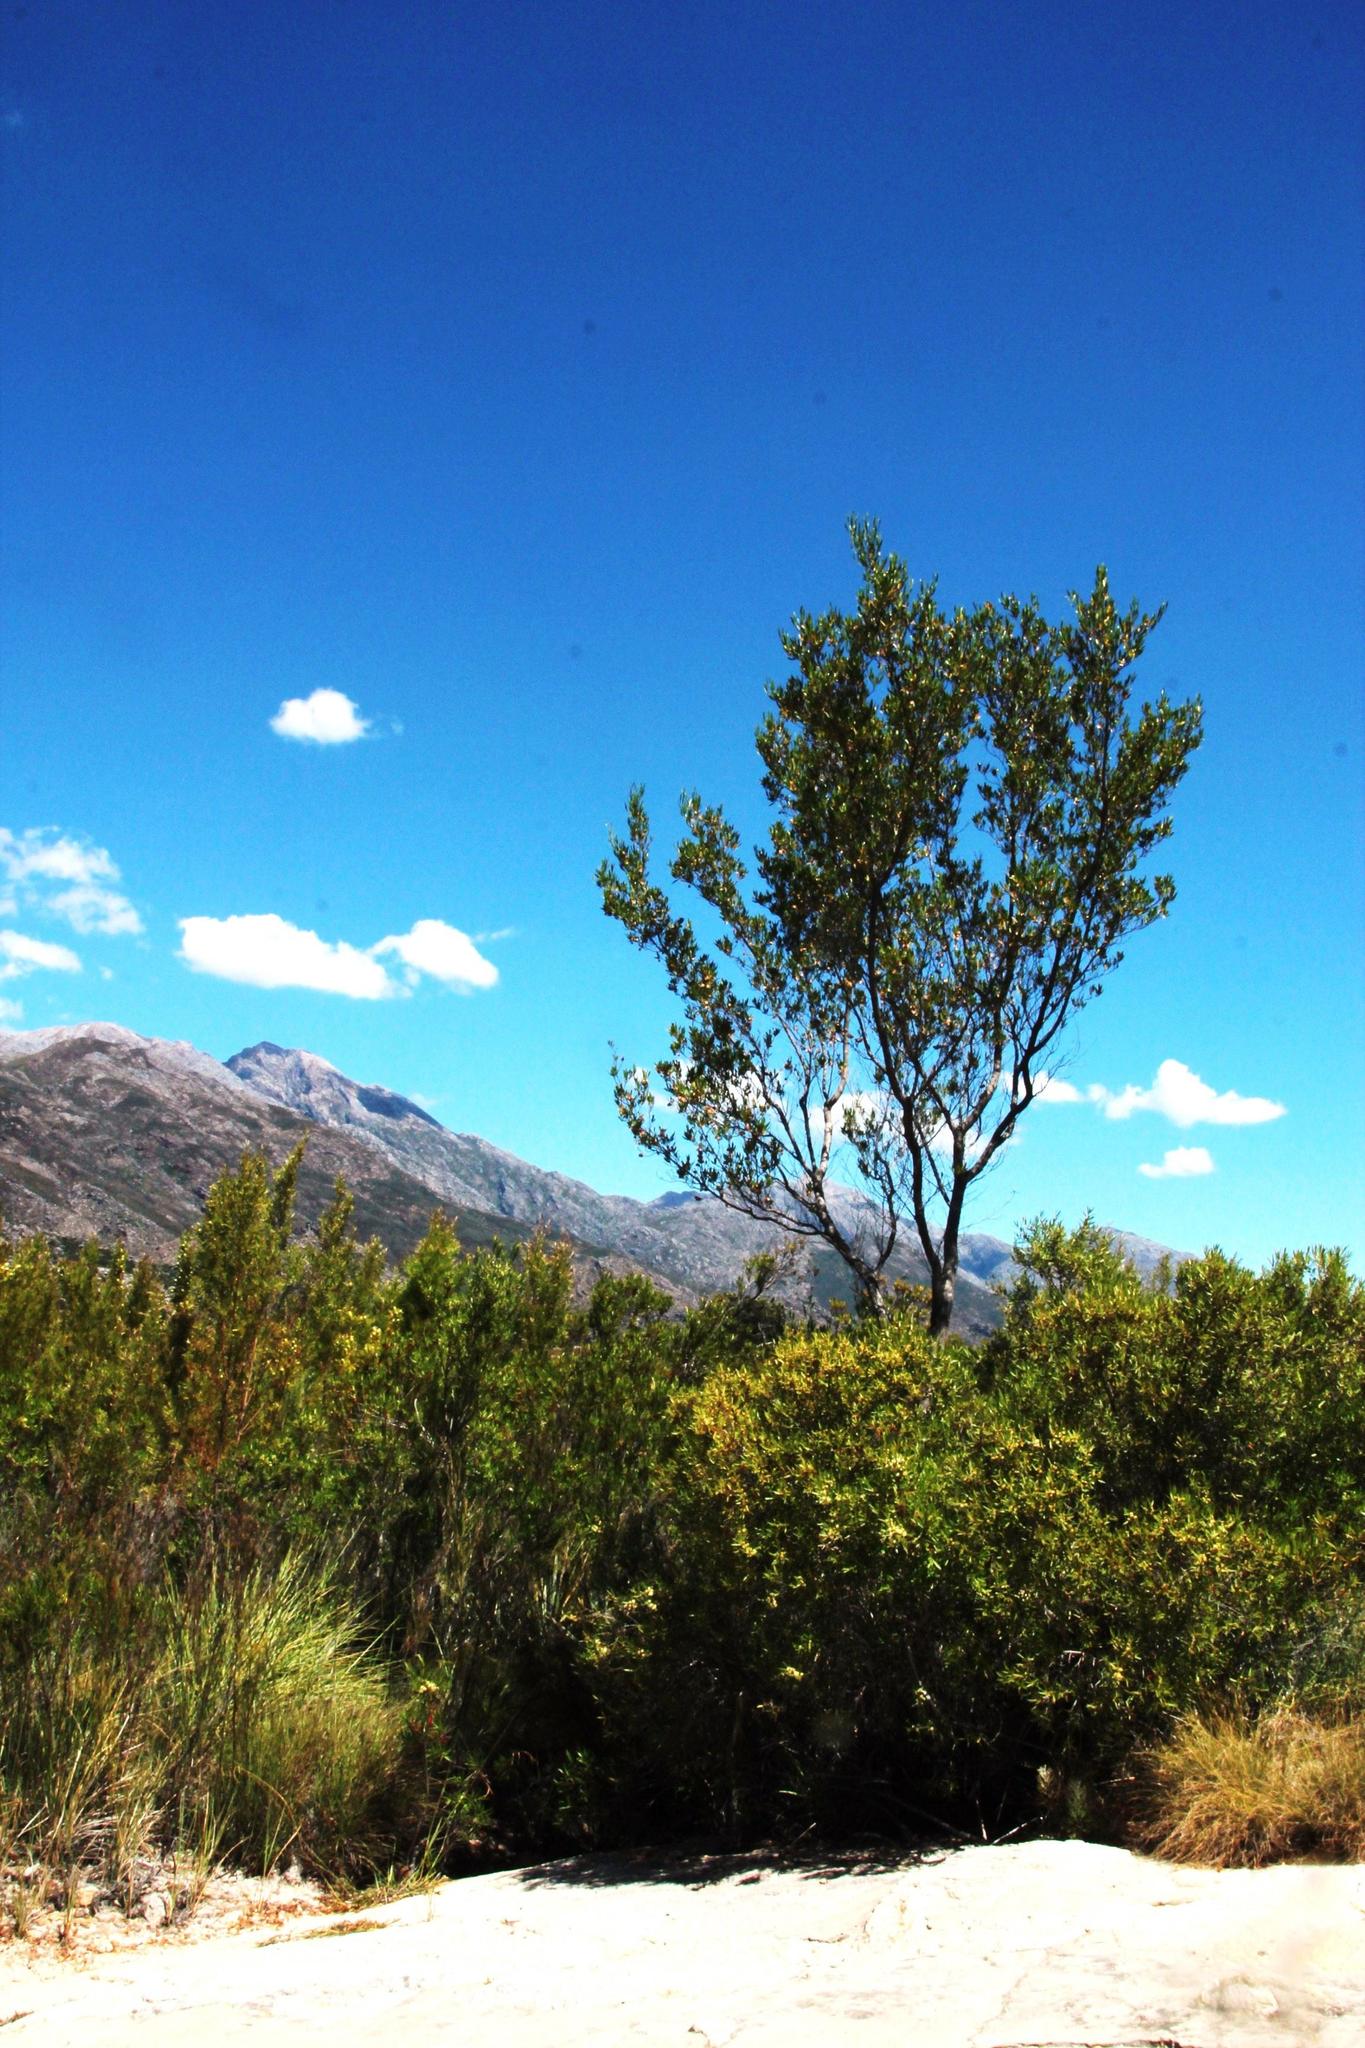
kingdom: Plantae
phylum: Tracheophyta
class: Magnoliopsida
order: Sapindales
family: Sapindaceae
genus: Dodonaea
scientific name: Dodonaea viscosa
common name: Hopbush
